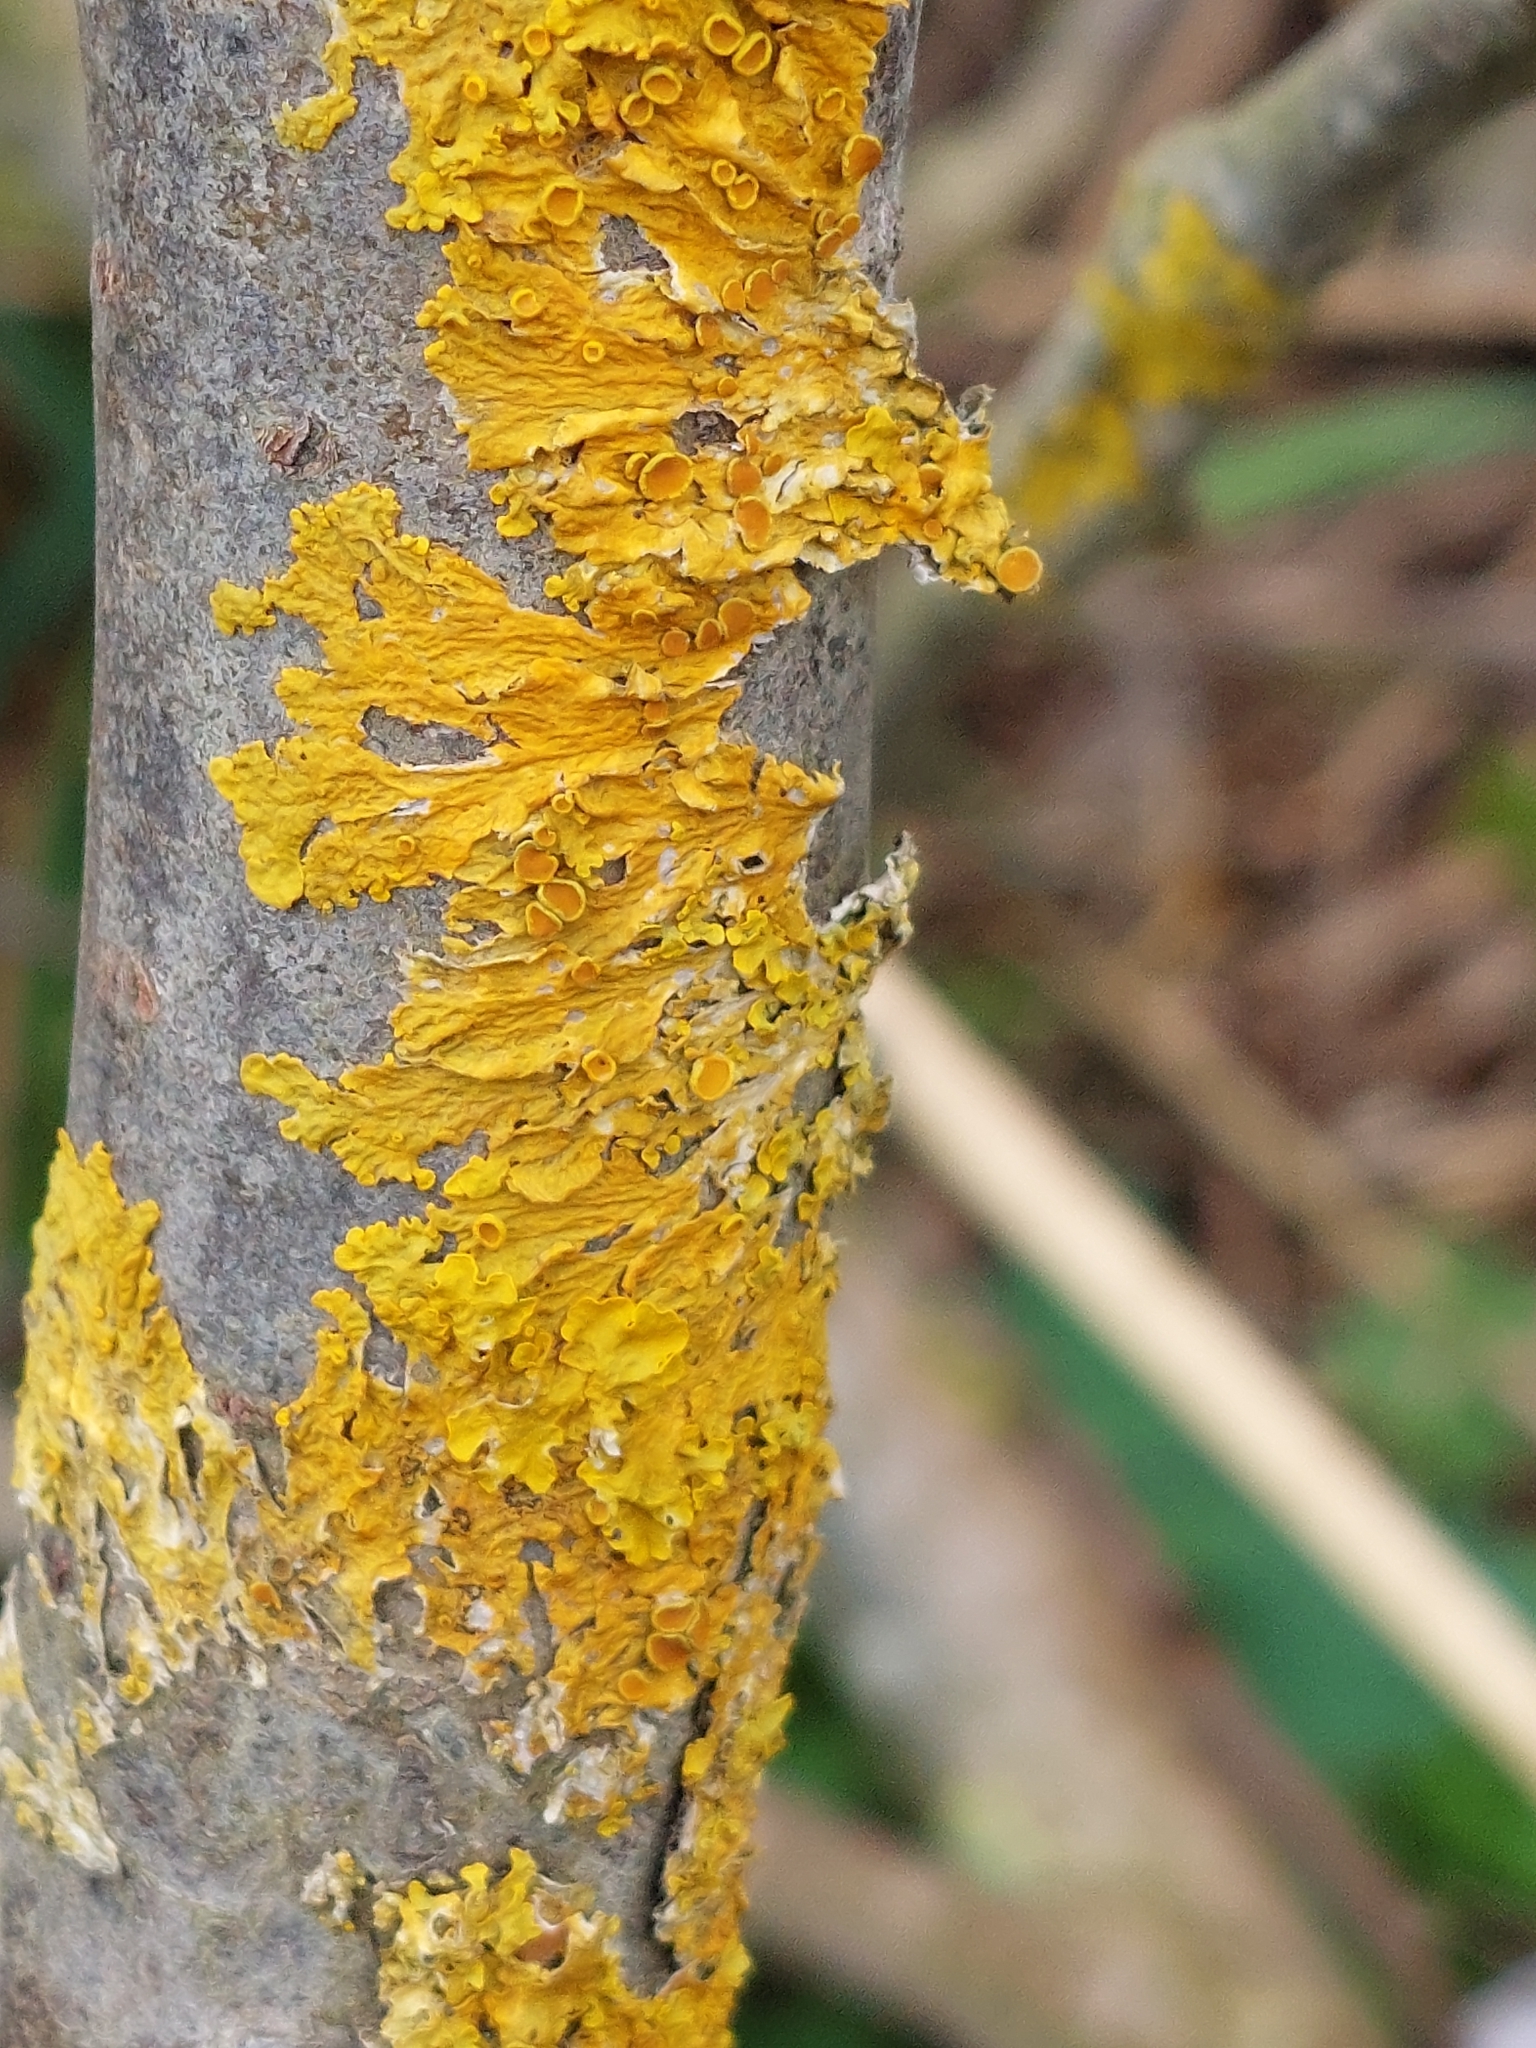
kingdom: Fungi
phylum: Ascomycota
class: Lecanoromycetes
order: Teloschistales
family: Teloschistaceae
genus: Xanthoria
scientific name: Xanthoria parietina
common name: Common orange lichen
